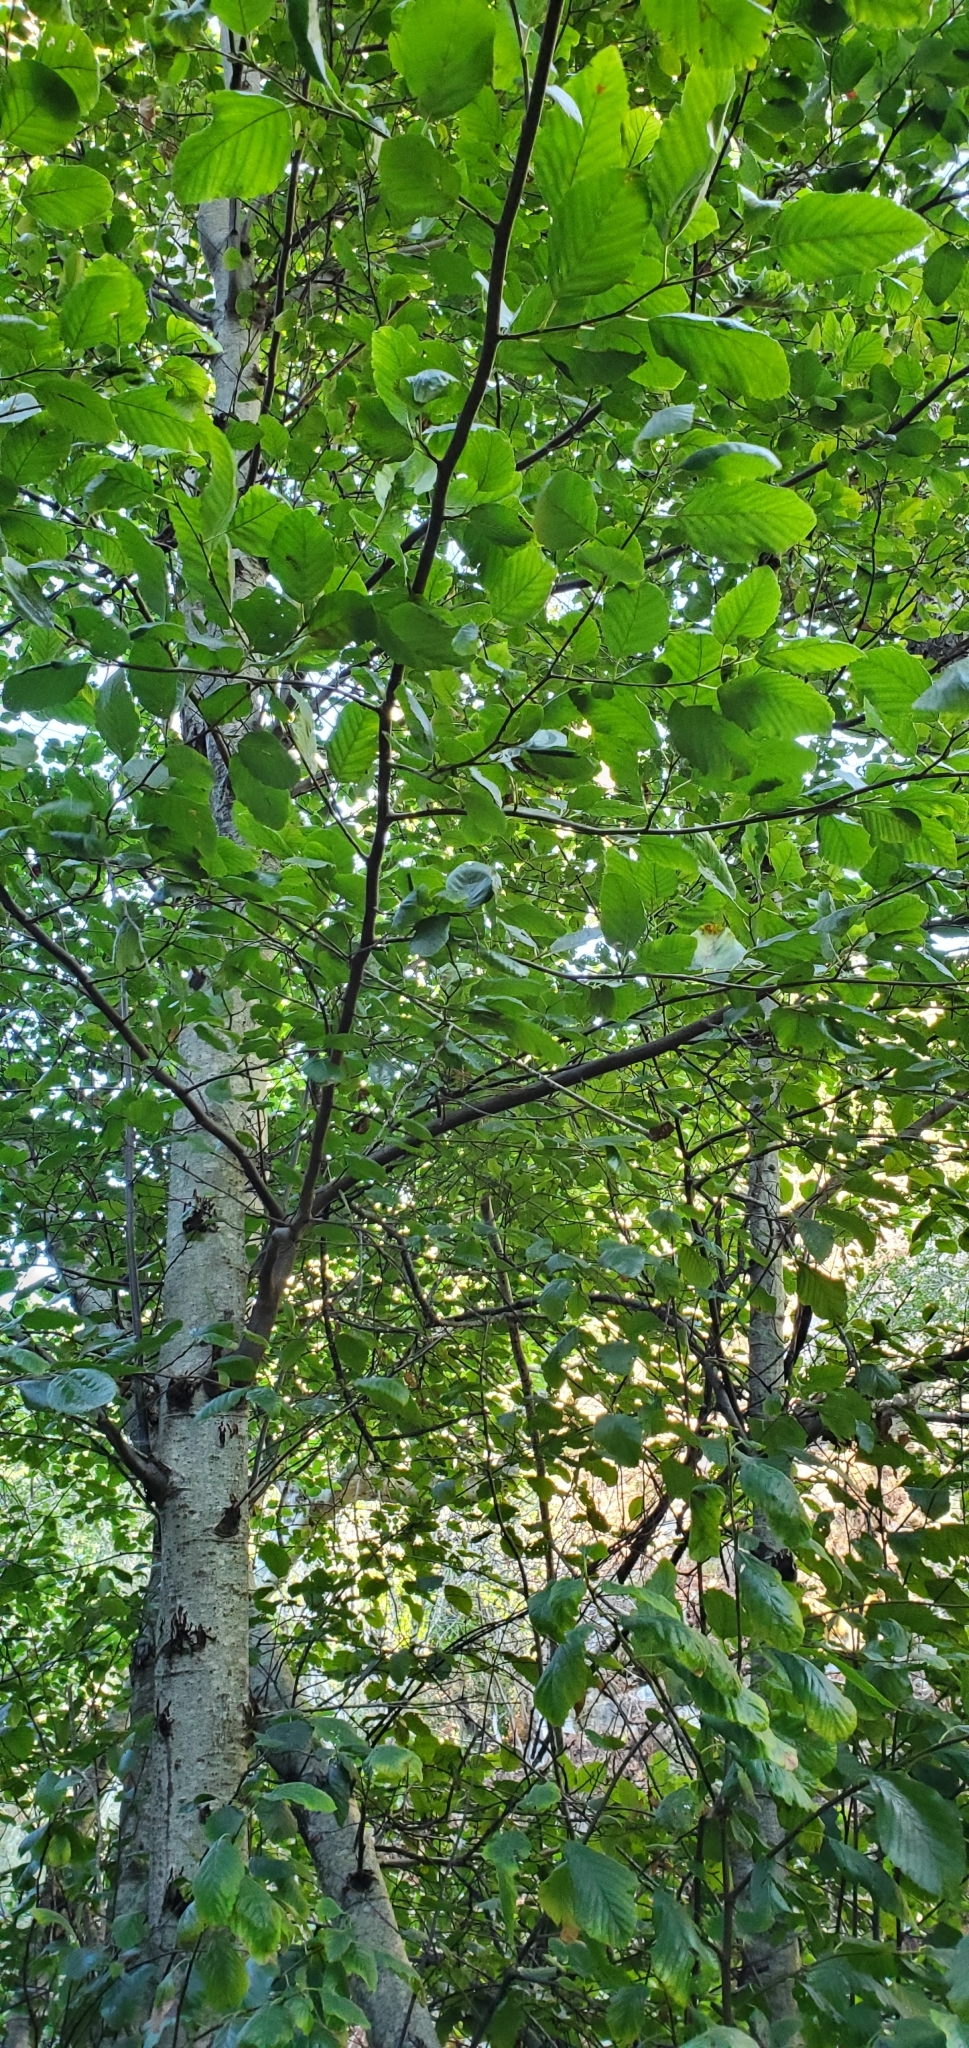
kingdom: Plantae
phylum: Tracheophyta
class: Magnoliopsida
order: Fagales
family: Betulaceae
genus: Alnus
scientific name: Alnus rhombifolia
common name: California alder
